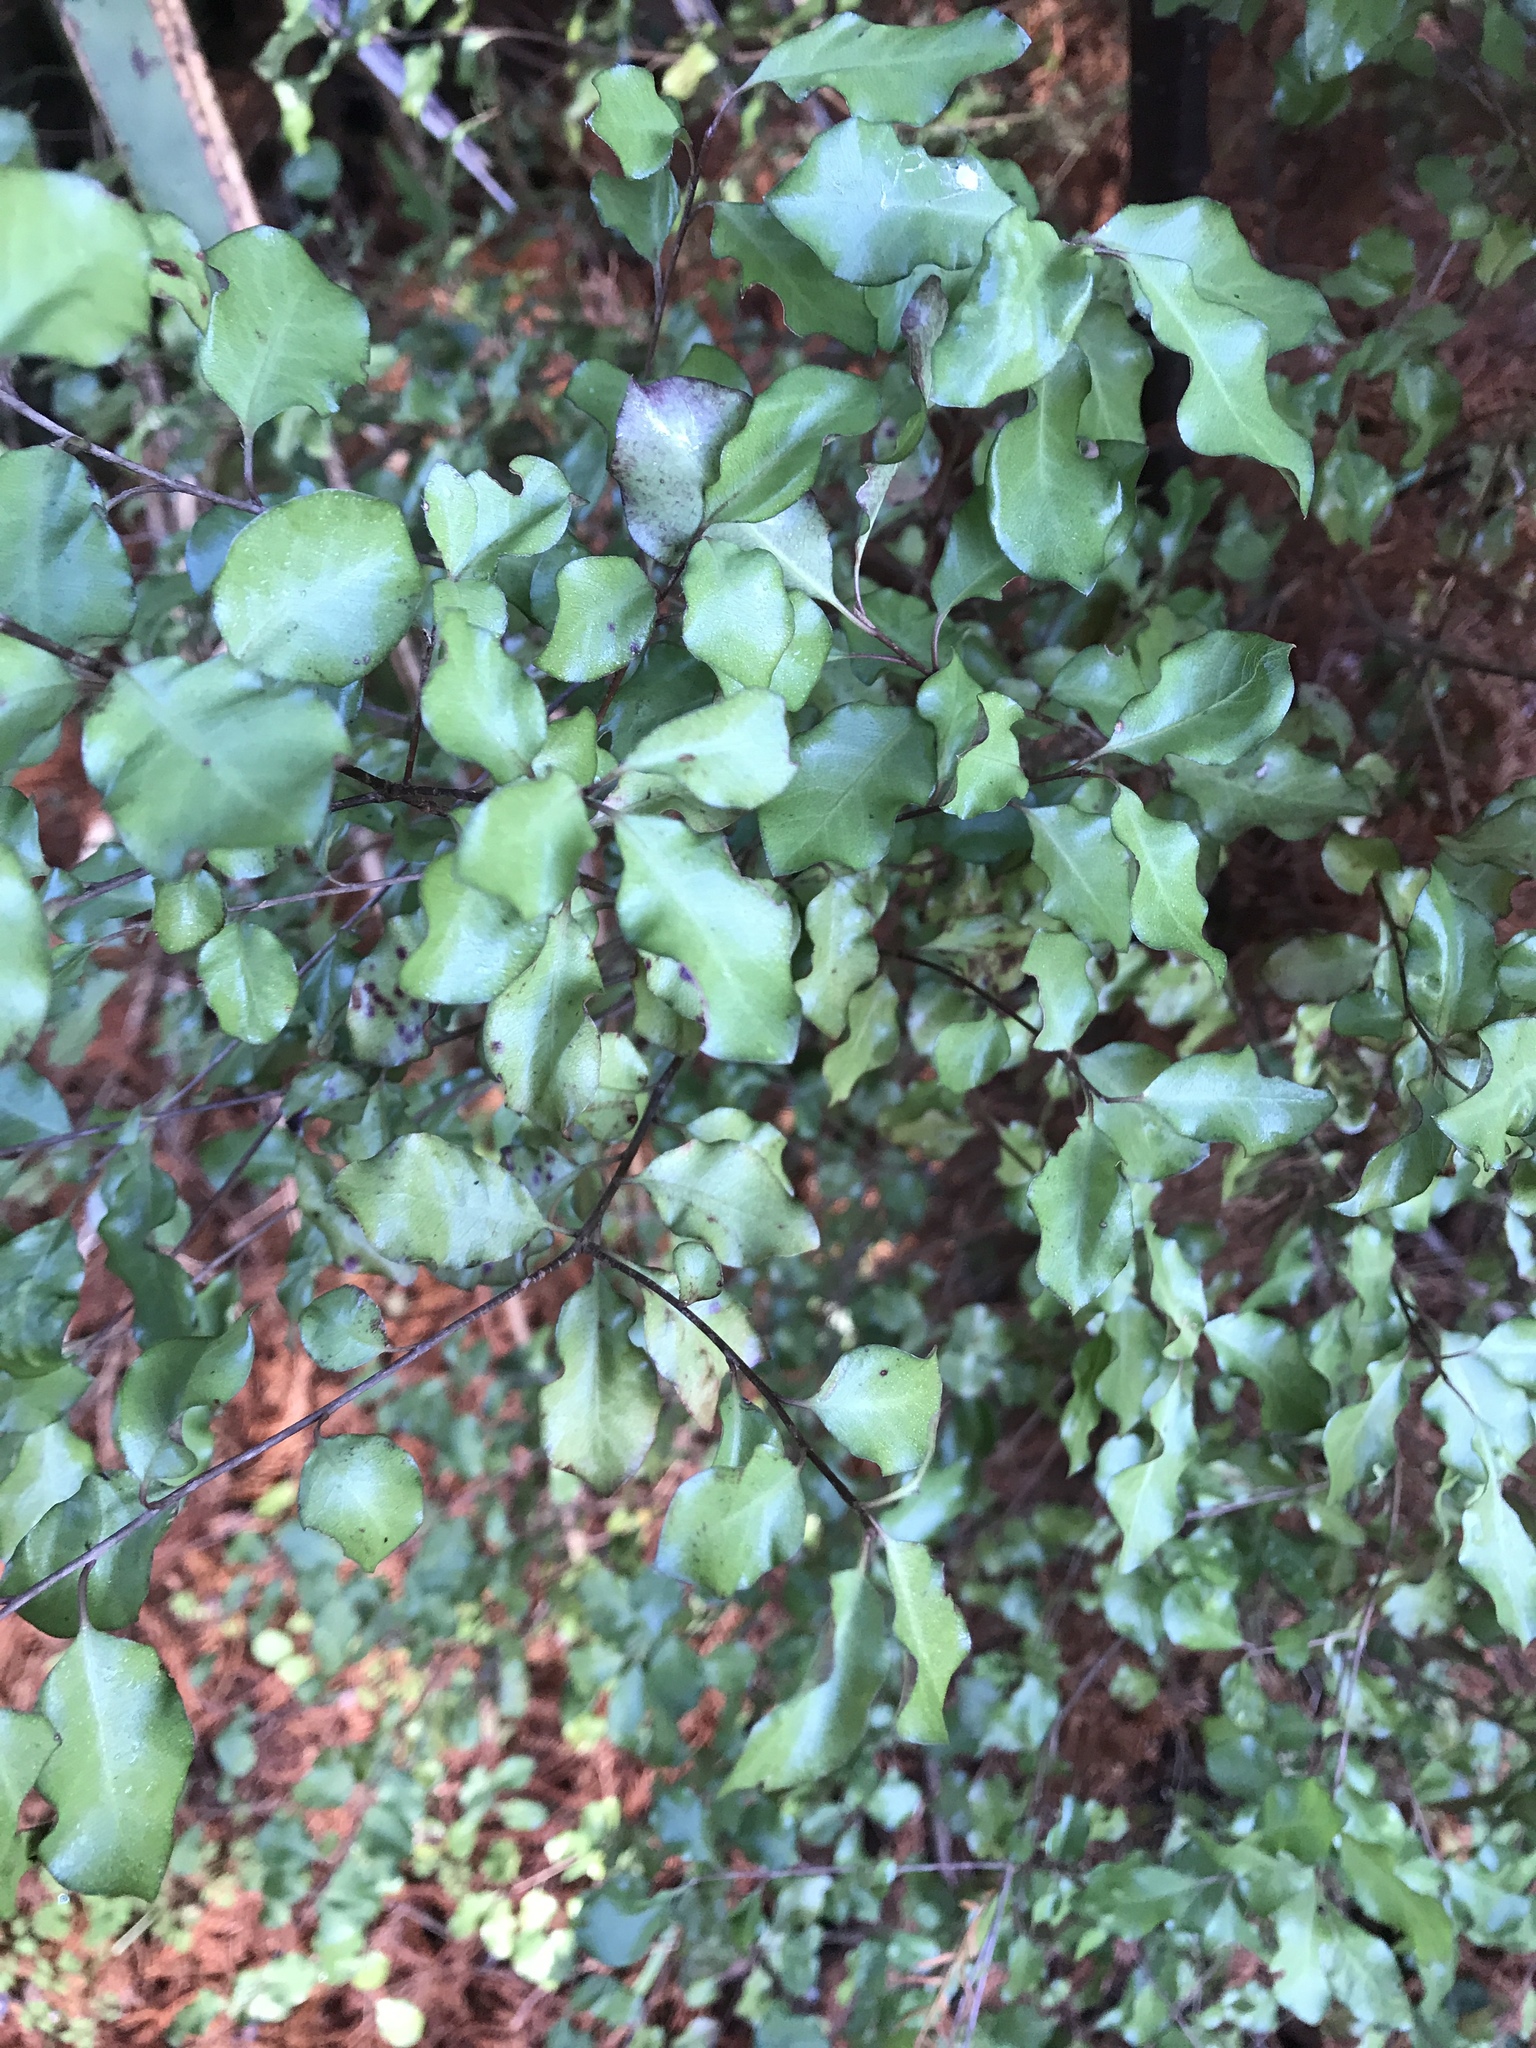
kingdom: Plantae
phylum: Tracheophyta
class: Magnoliopsida
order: Apiales
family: Pittosporaceae
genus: Pittosporum
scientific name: Pittosporum tenuifolium
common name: Kohuhu
